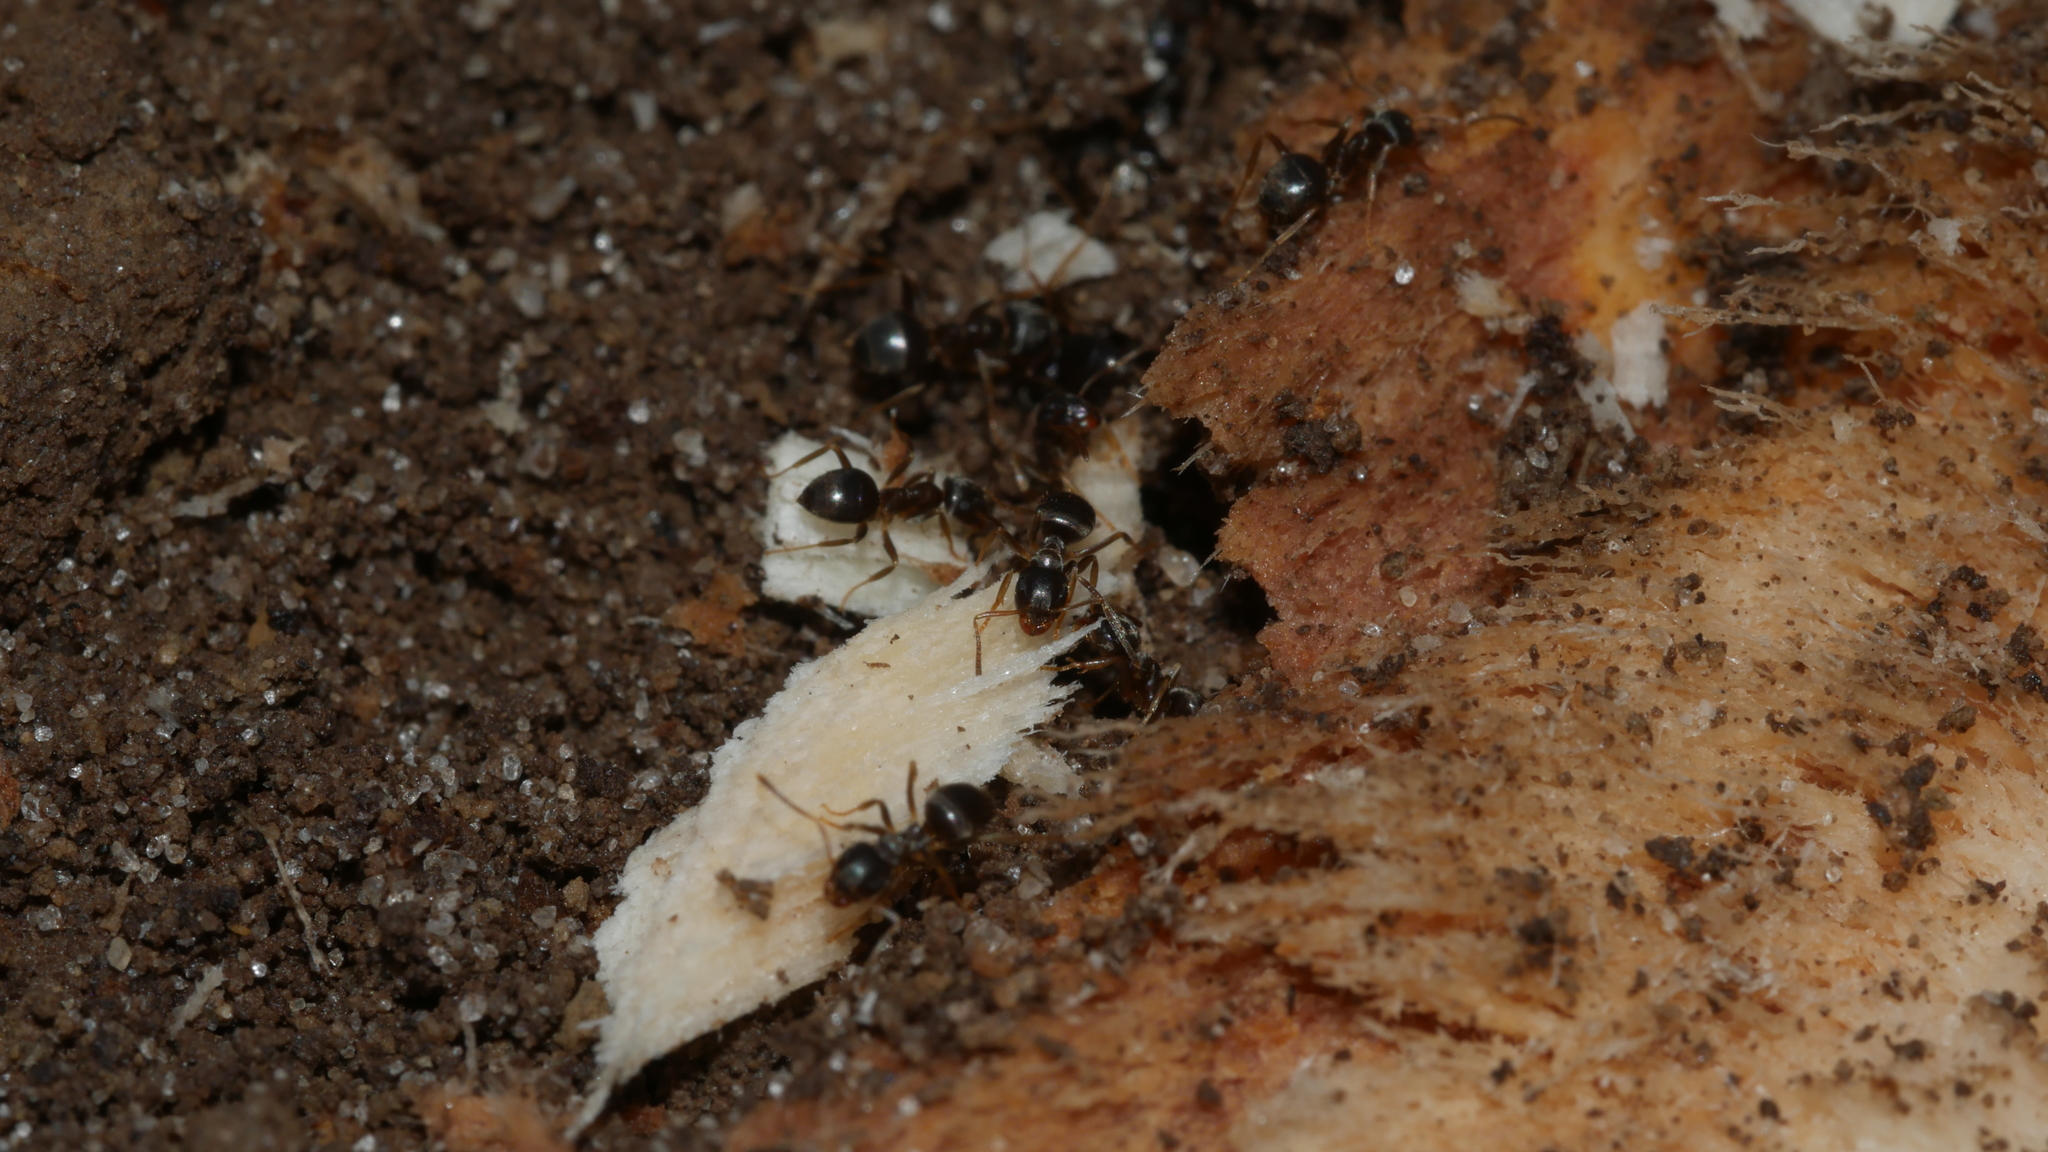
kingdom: Animalia
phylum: Arthropoda
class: Insecta
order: Hymenoptera
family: Formicidae
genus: Lasius
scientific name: Lasius americanus
